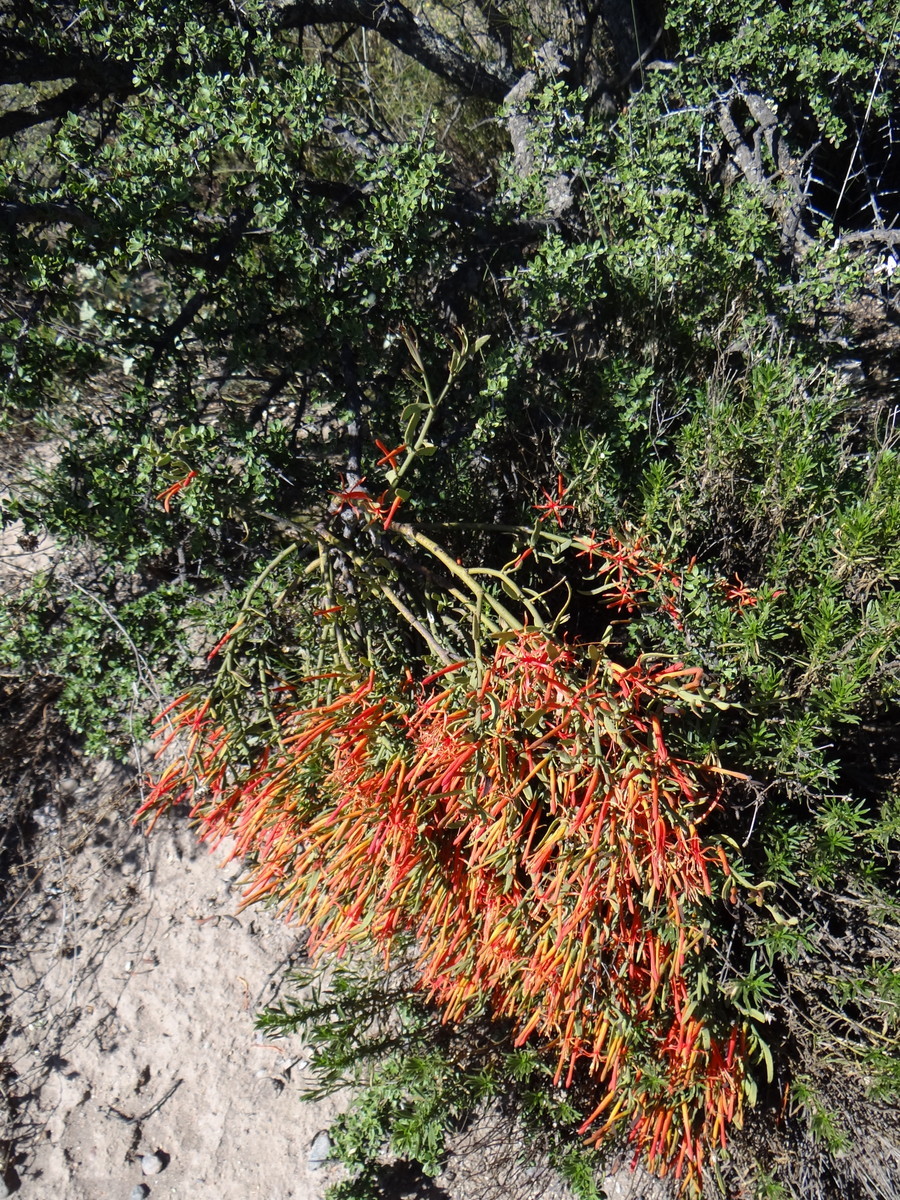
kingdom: Plantae
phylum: Tracheophyta
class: Magnoliopsida
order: Santalales
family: Loranthaceae
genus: Ligaria
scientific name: Ligaria cuneifolia
